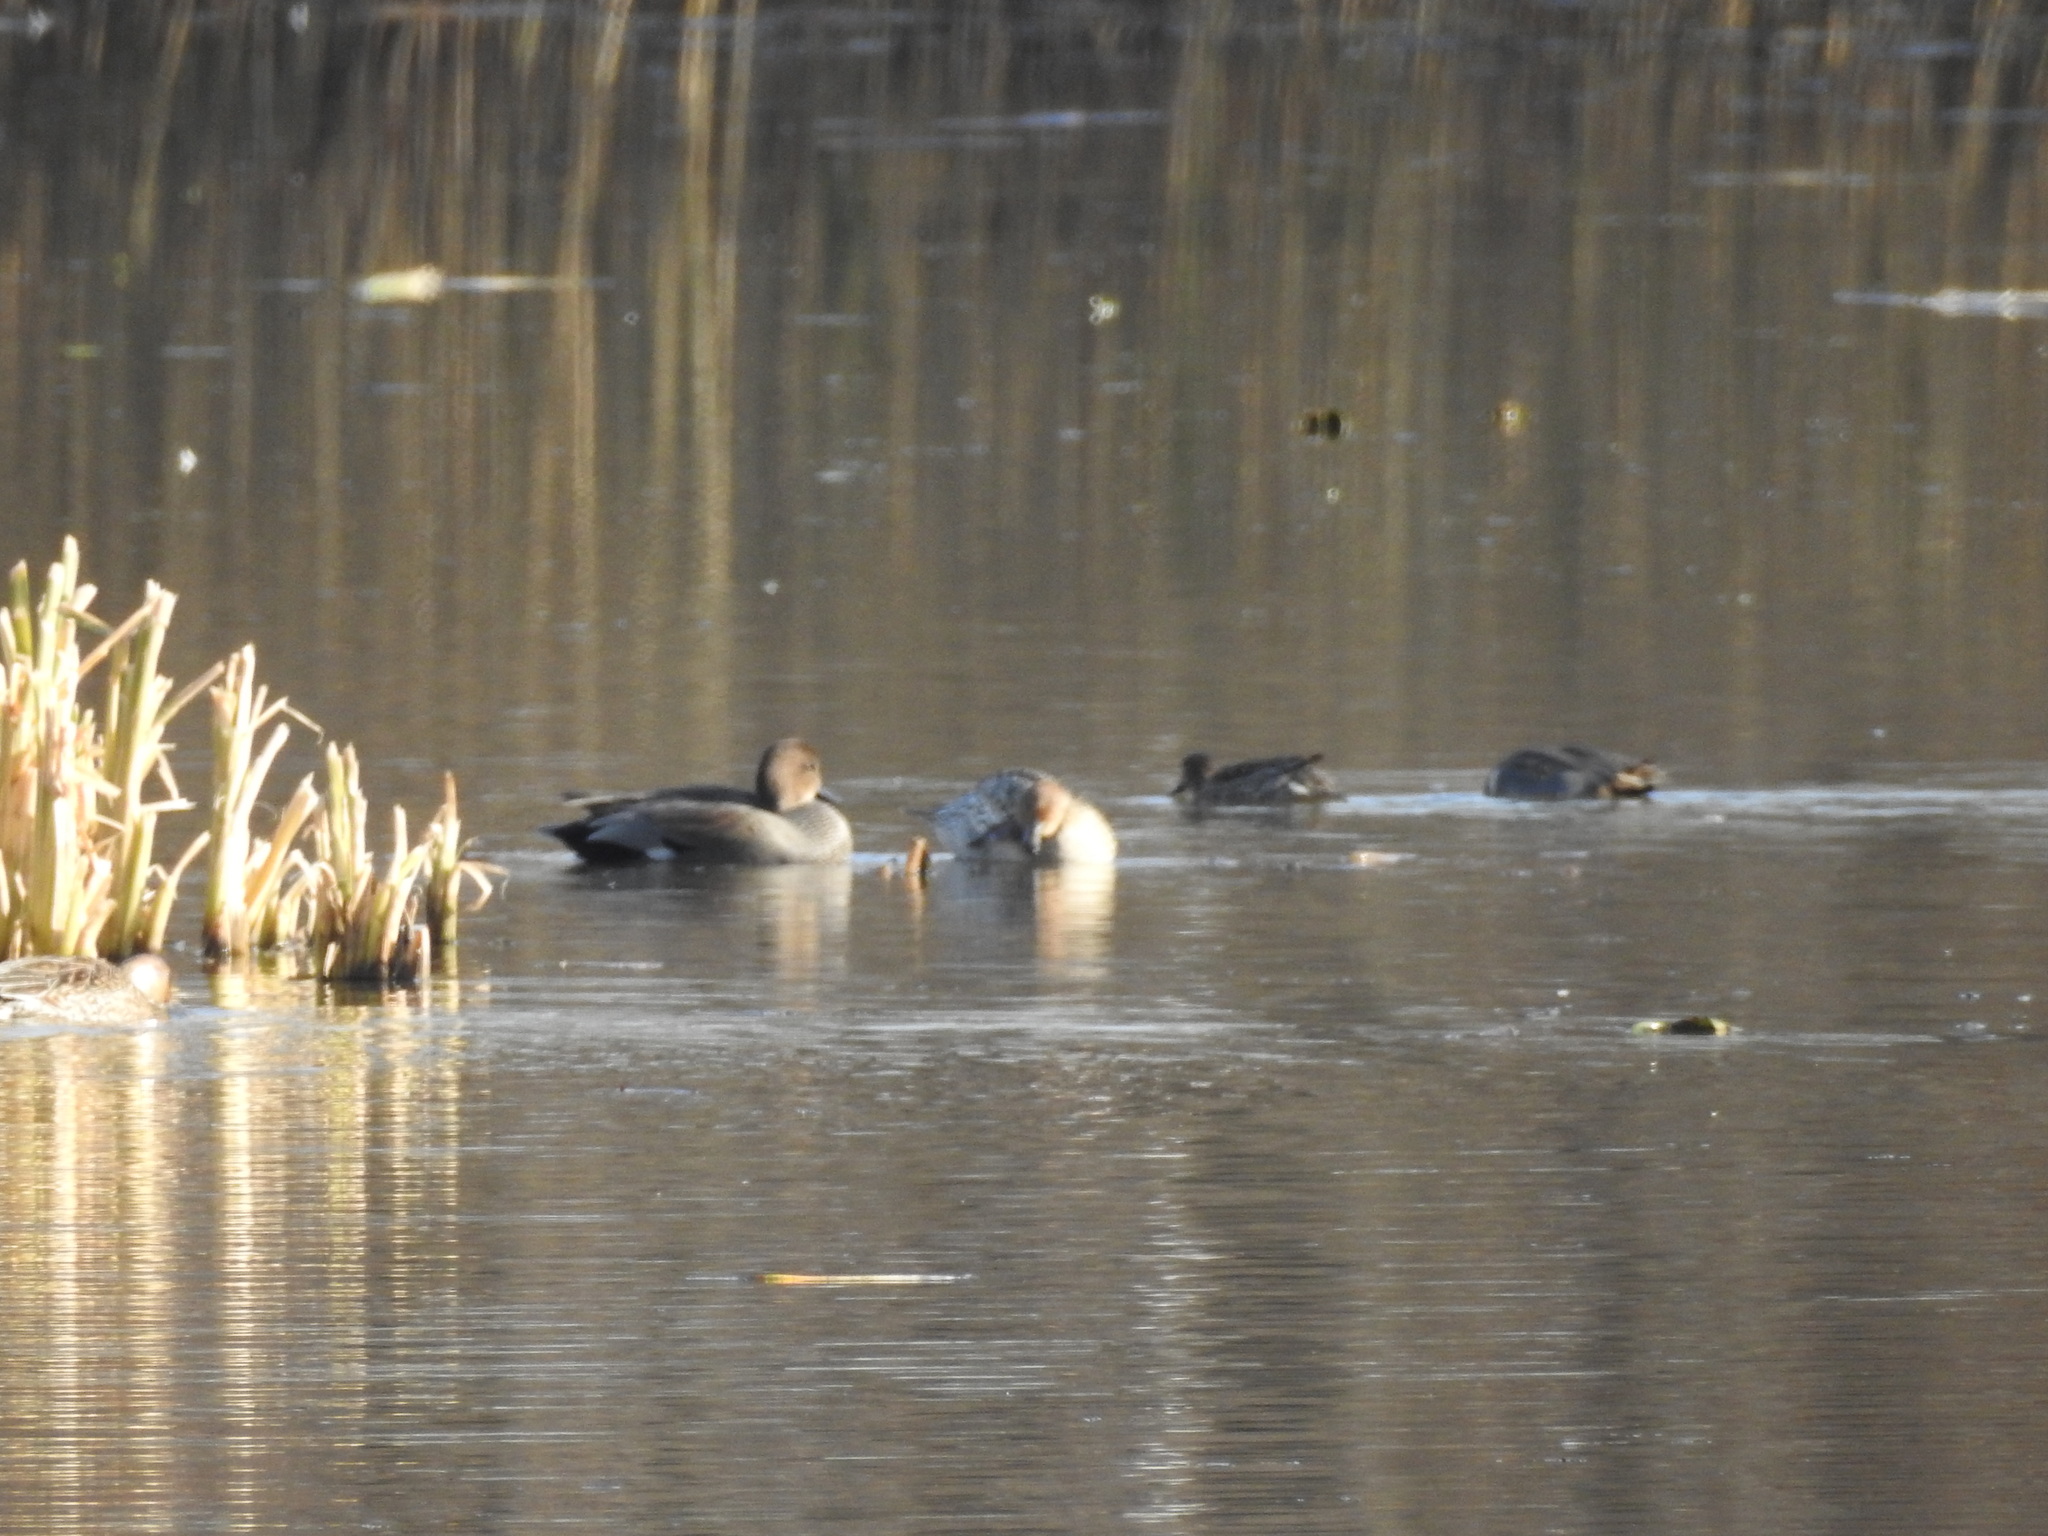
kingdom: Animalia
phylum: Chordata
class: Aves
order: Anseriformes
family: Anatidae
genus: Mareca
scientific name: Mareca strepera
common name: Gadwall
